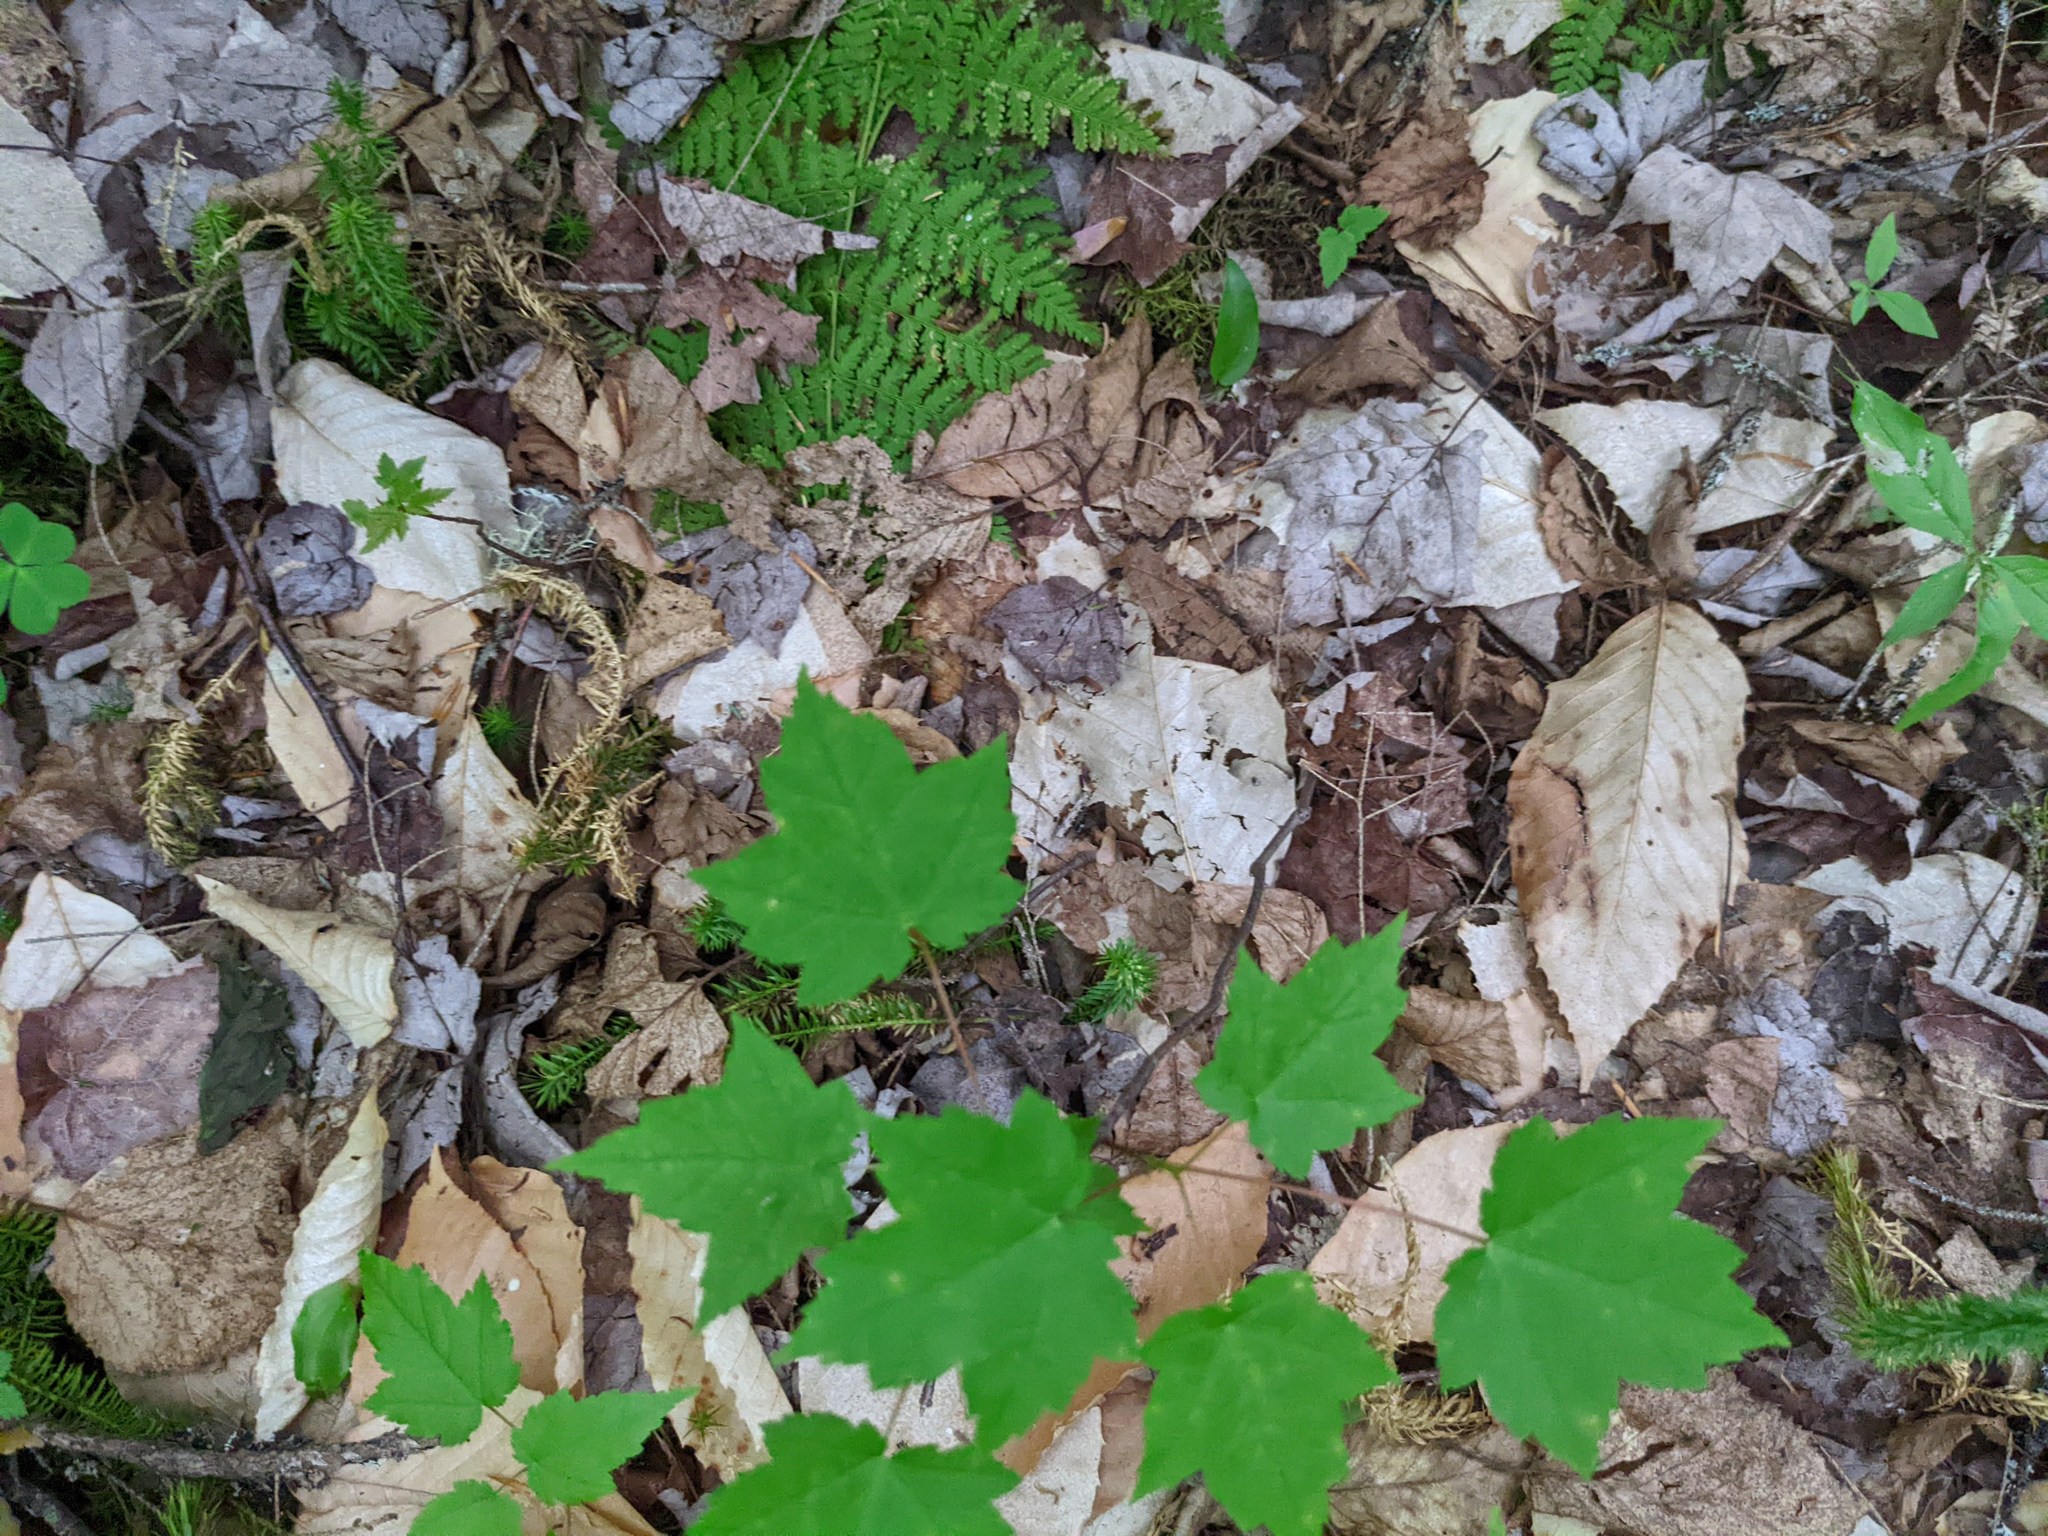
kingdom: Plantae
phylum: Tracheophyta
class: Magnoliopsida
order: Sapindales
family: Sapindaceae
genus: Acer
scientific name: Acer rubrum
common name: Red maple
